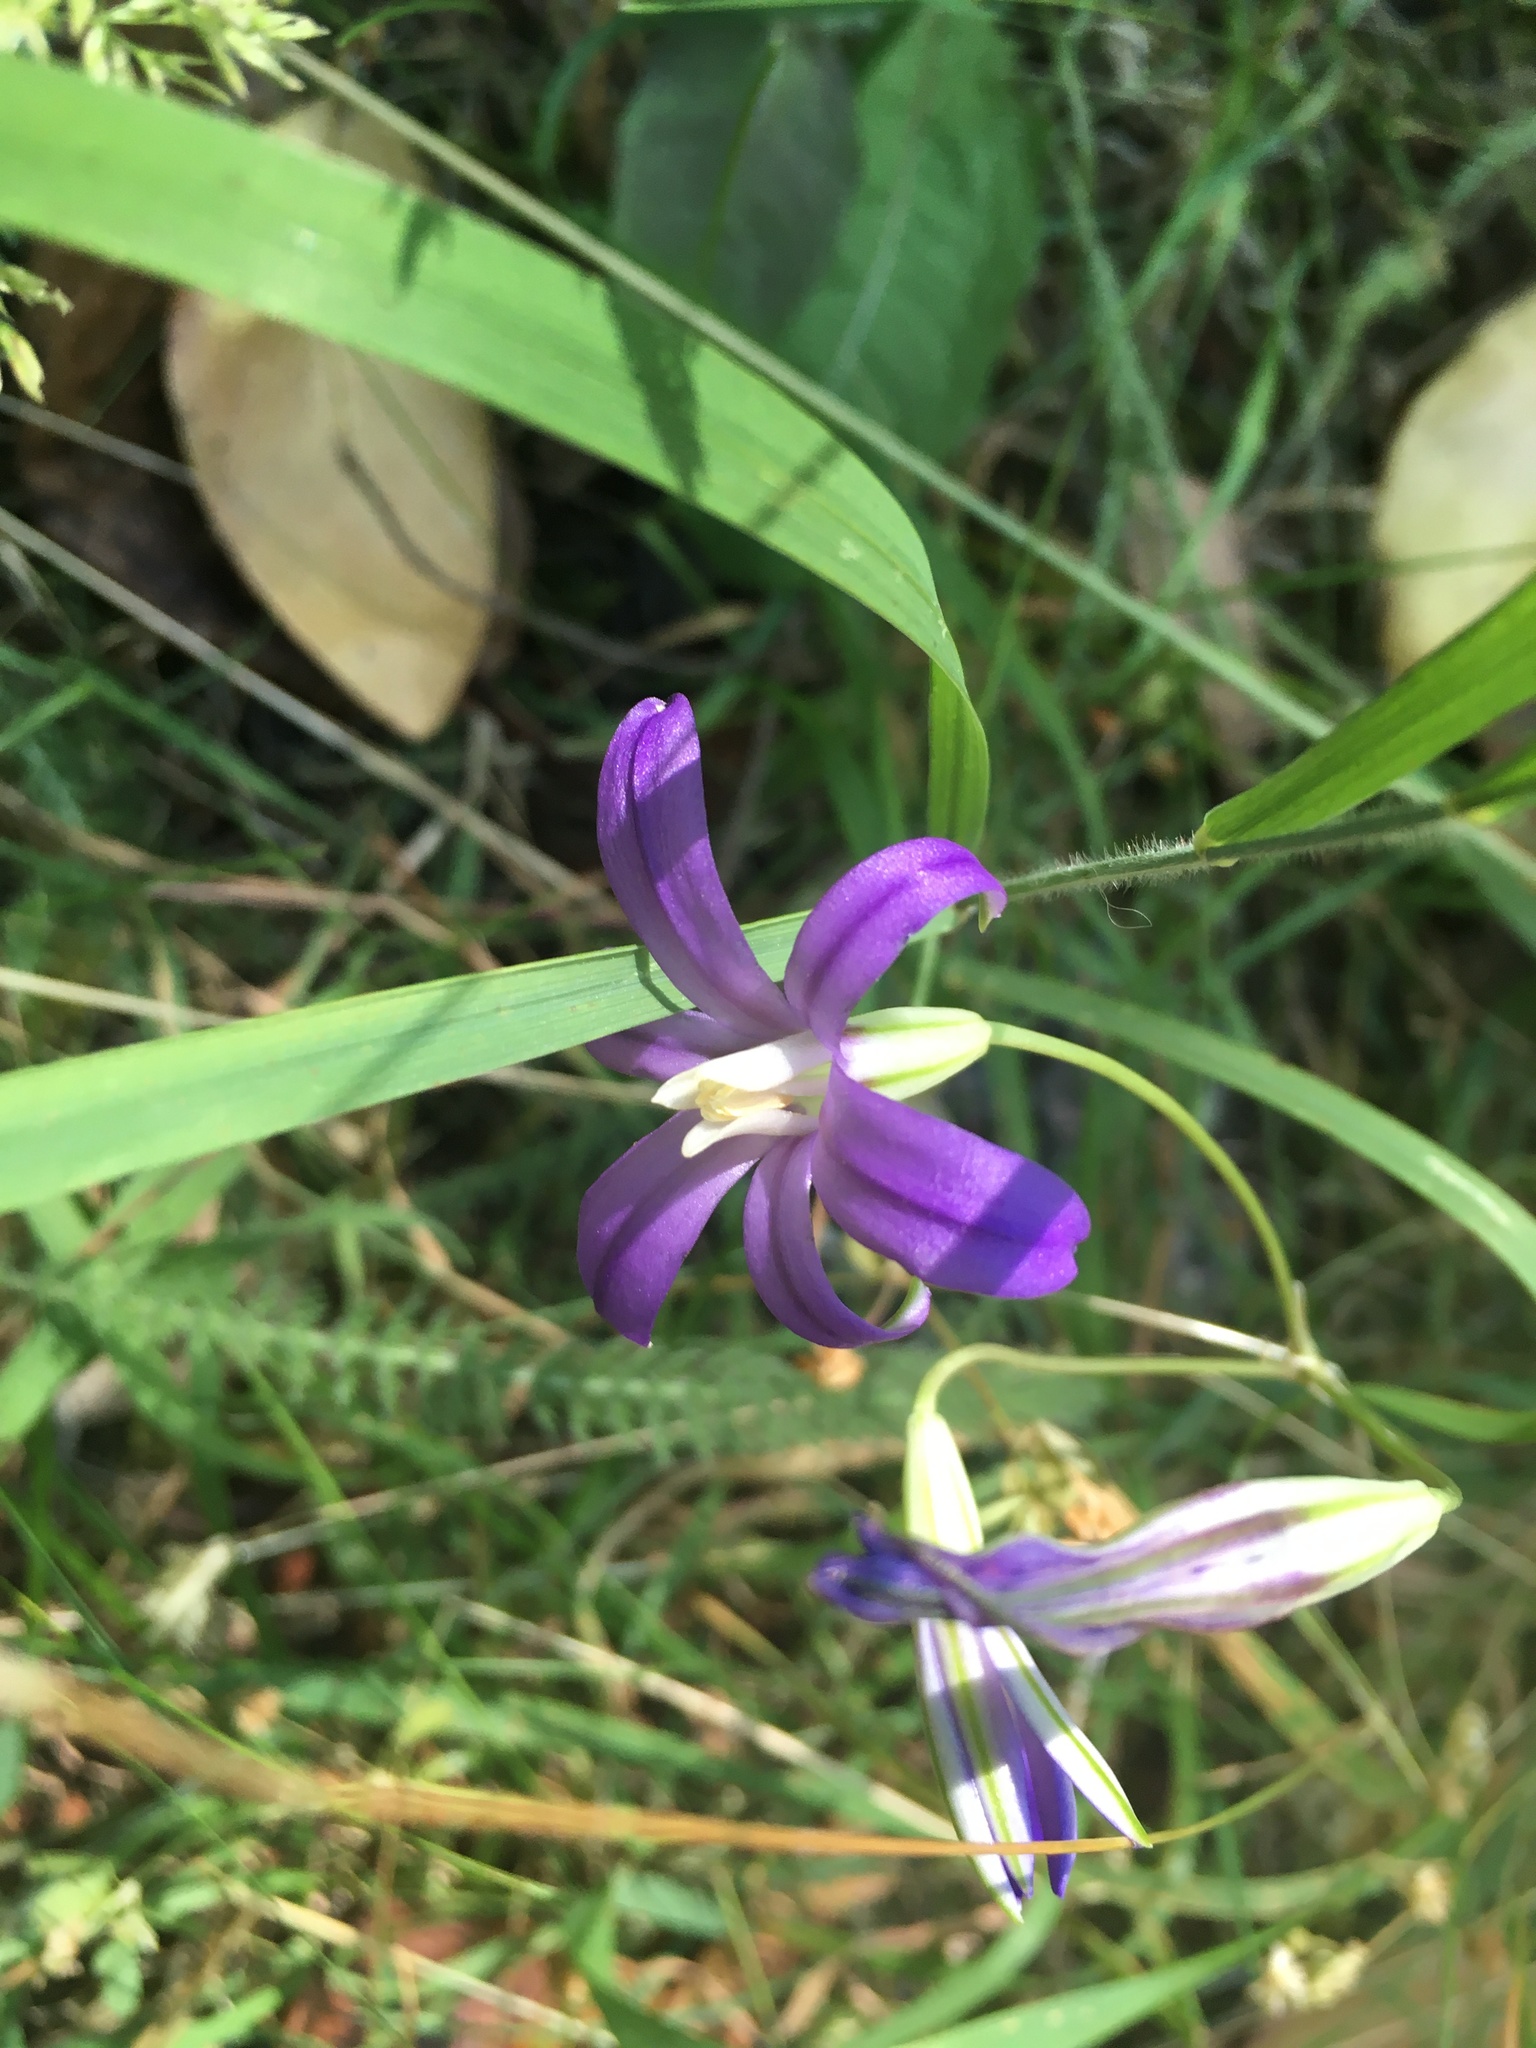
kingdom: Plantae
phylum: Tracheophyta
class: Liliopsida
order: Asparagales
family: Asparagaceae
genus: Brodiaea
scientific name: Brodiaea coronaria
